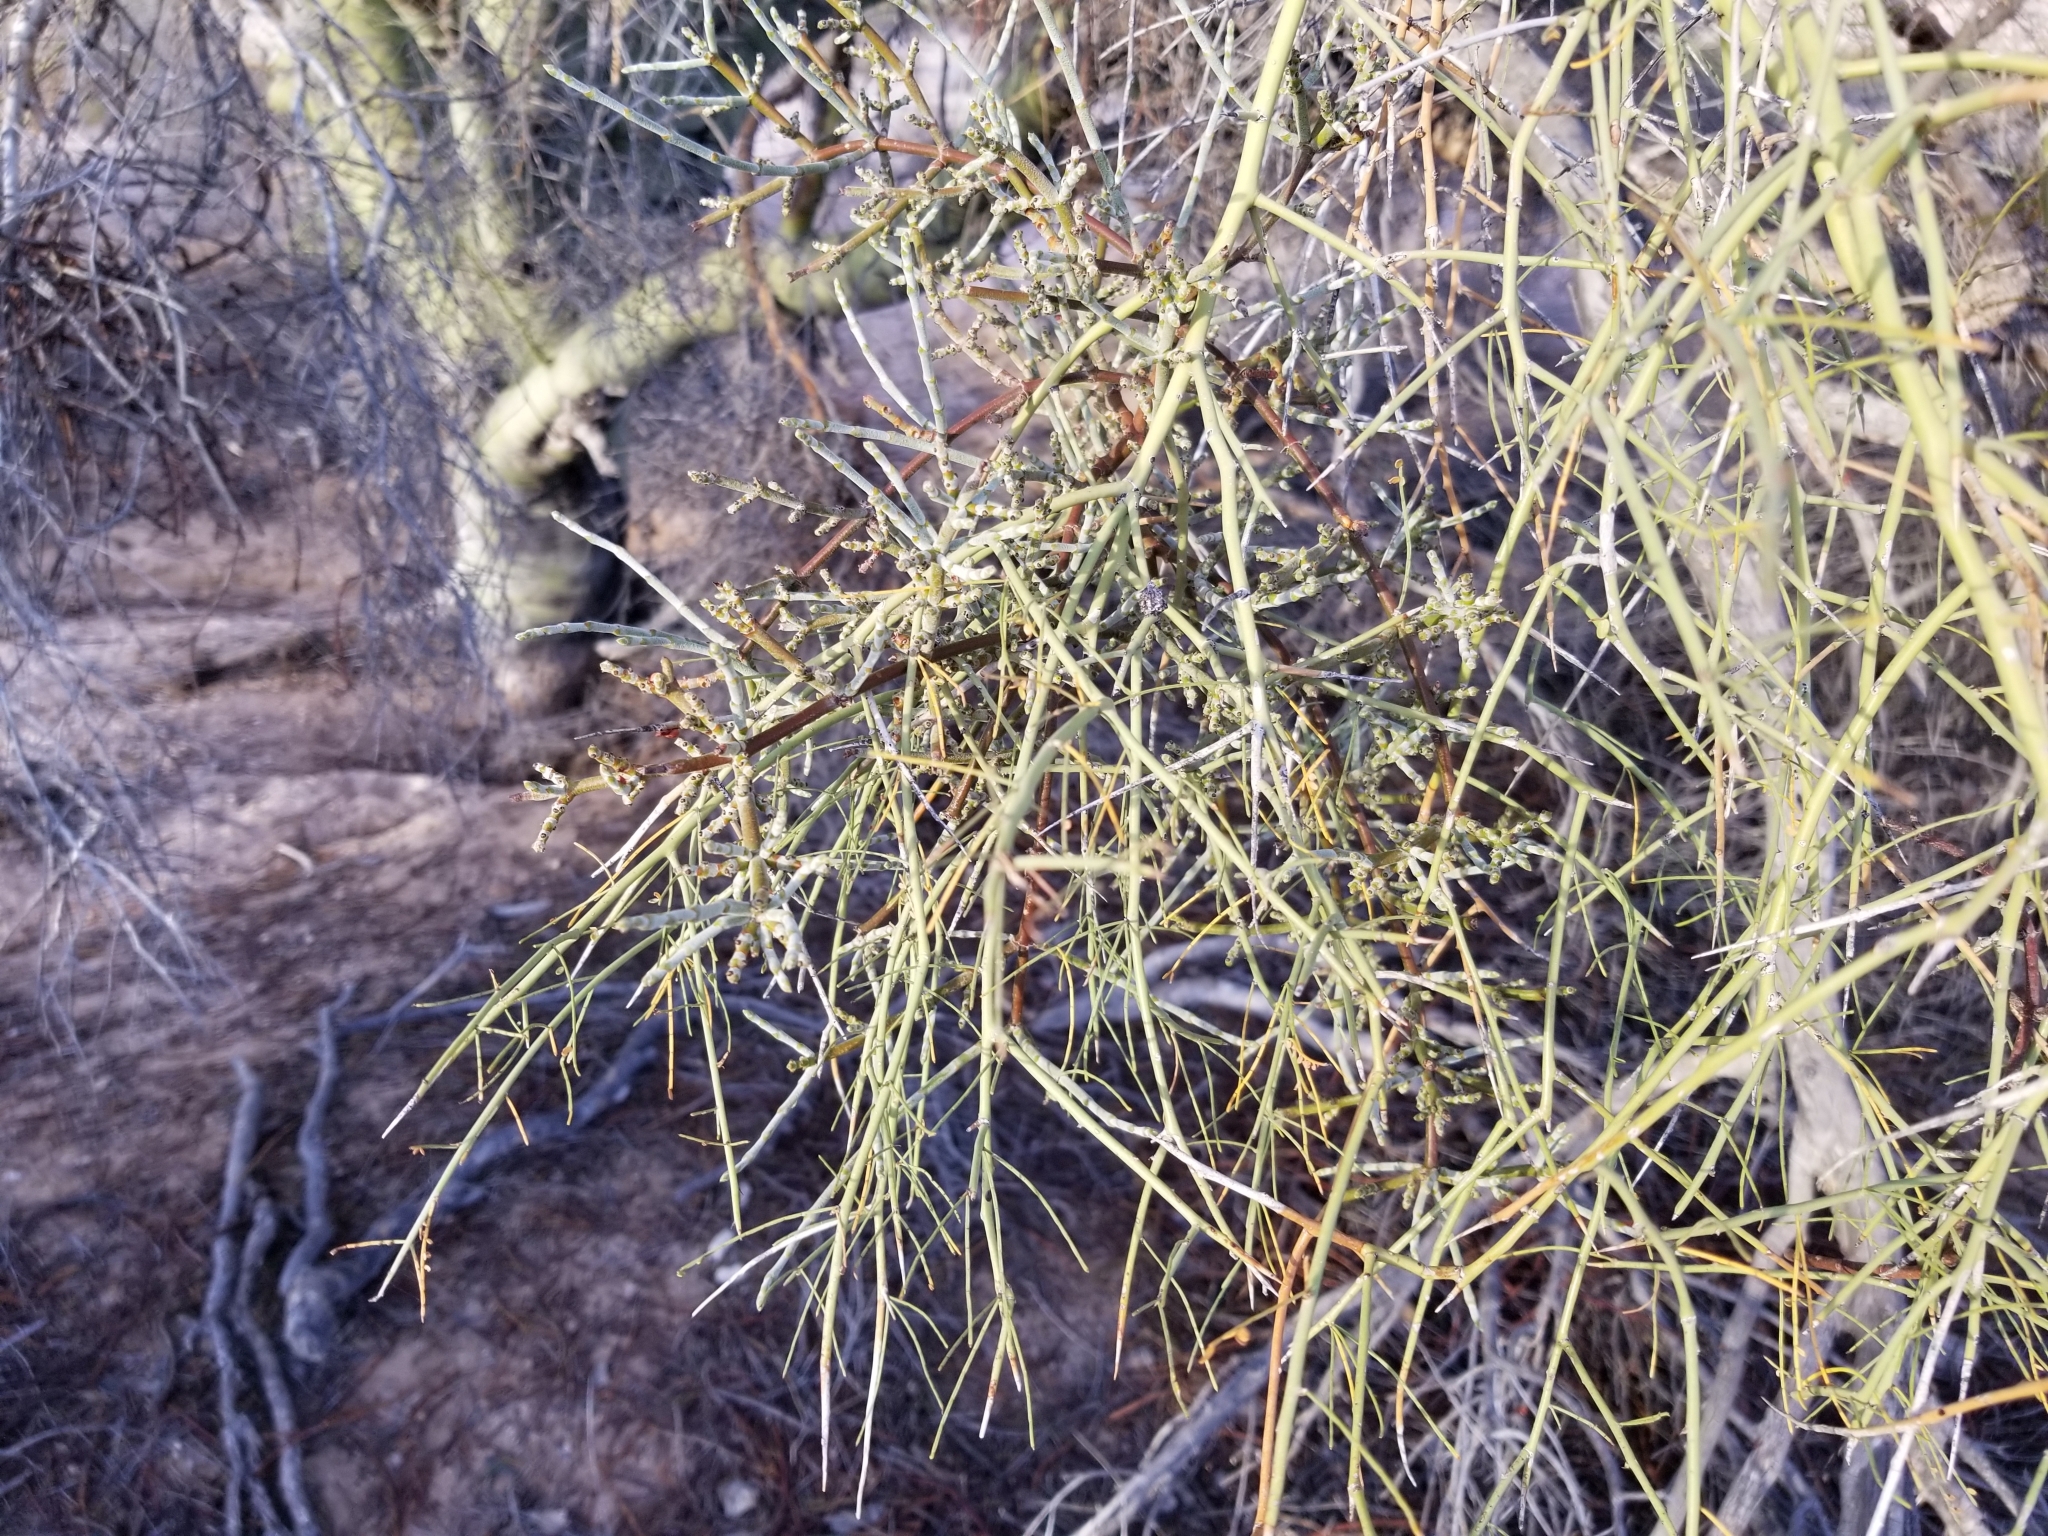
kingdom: Plantae
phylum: Tracheophyta
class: Magnoliopsida
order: Santalales
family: Viscaceae
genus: Phoradendron
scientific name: Phoradendron californicum
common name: Acacia mistletoe
